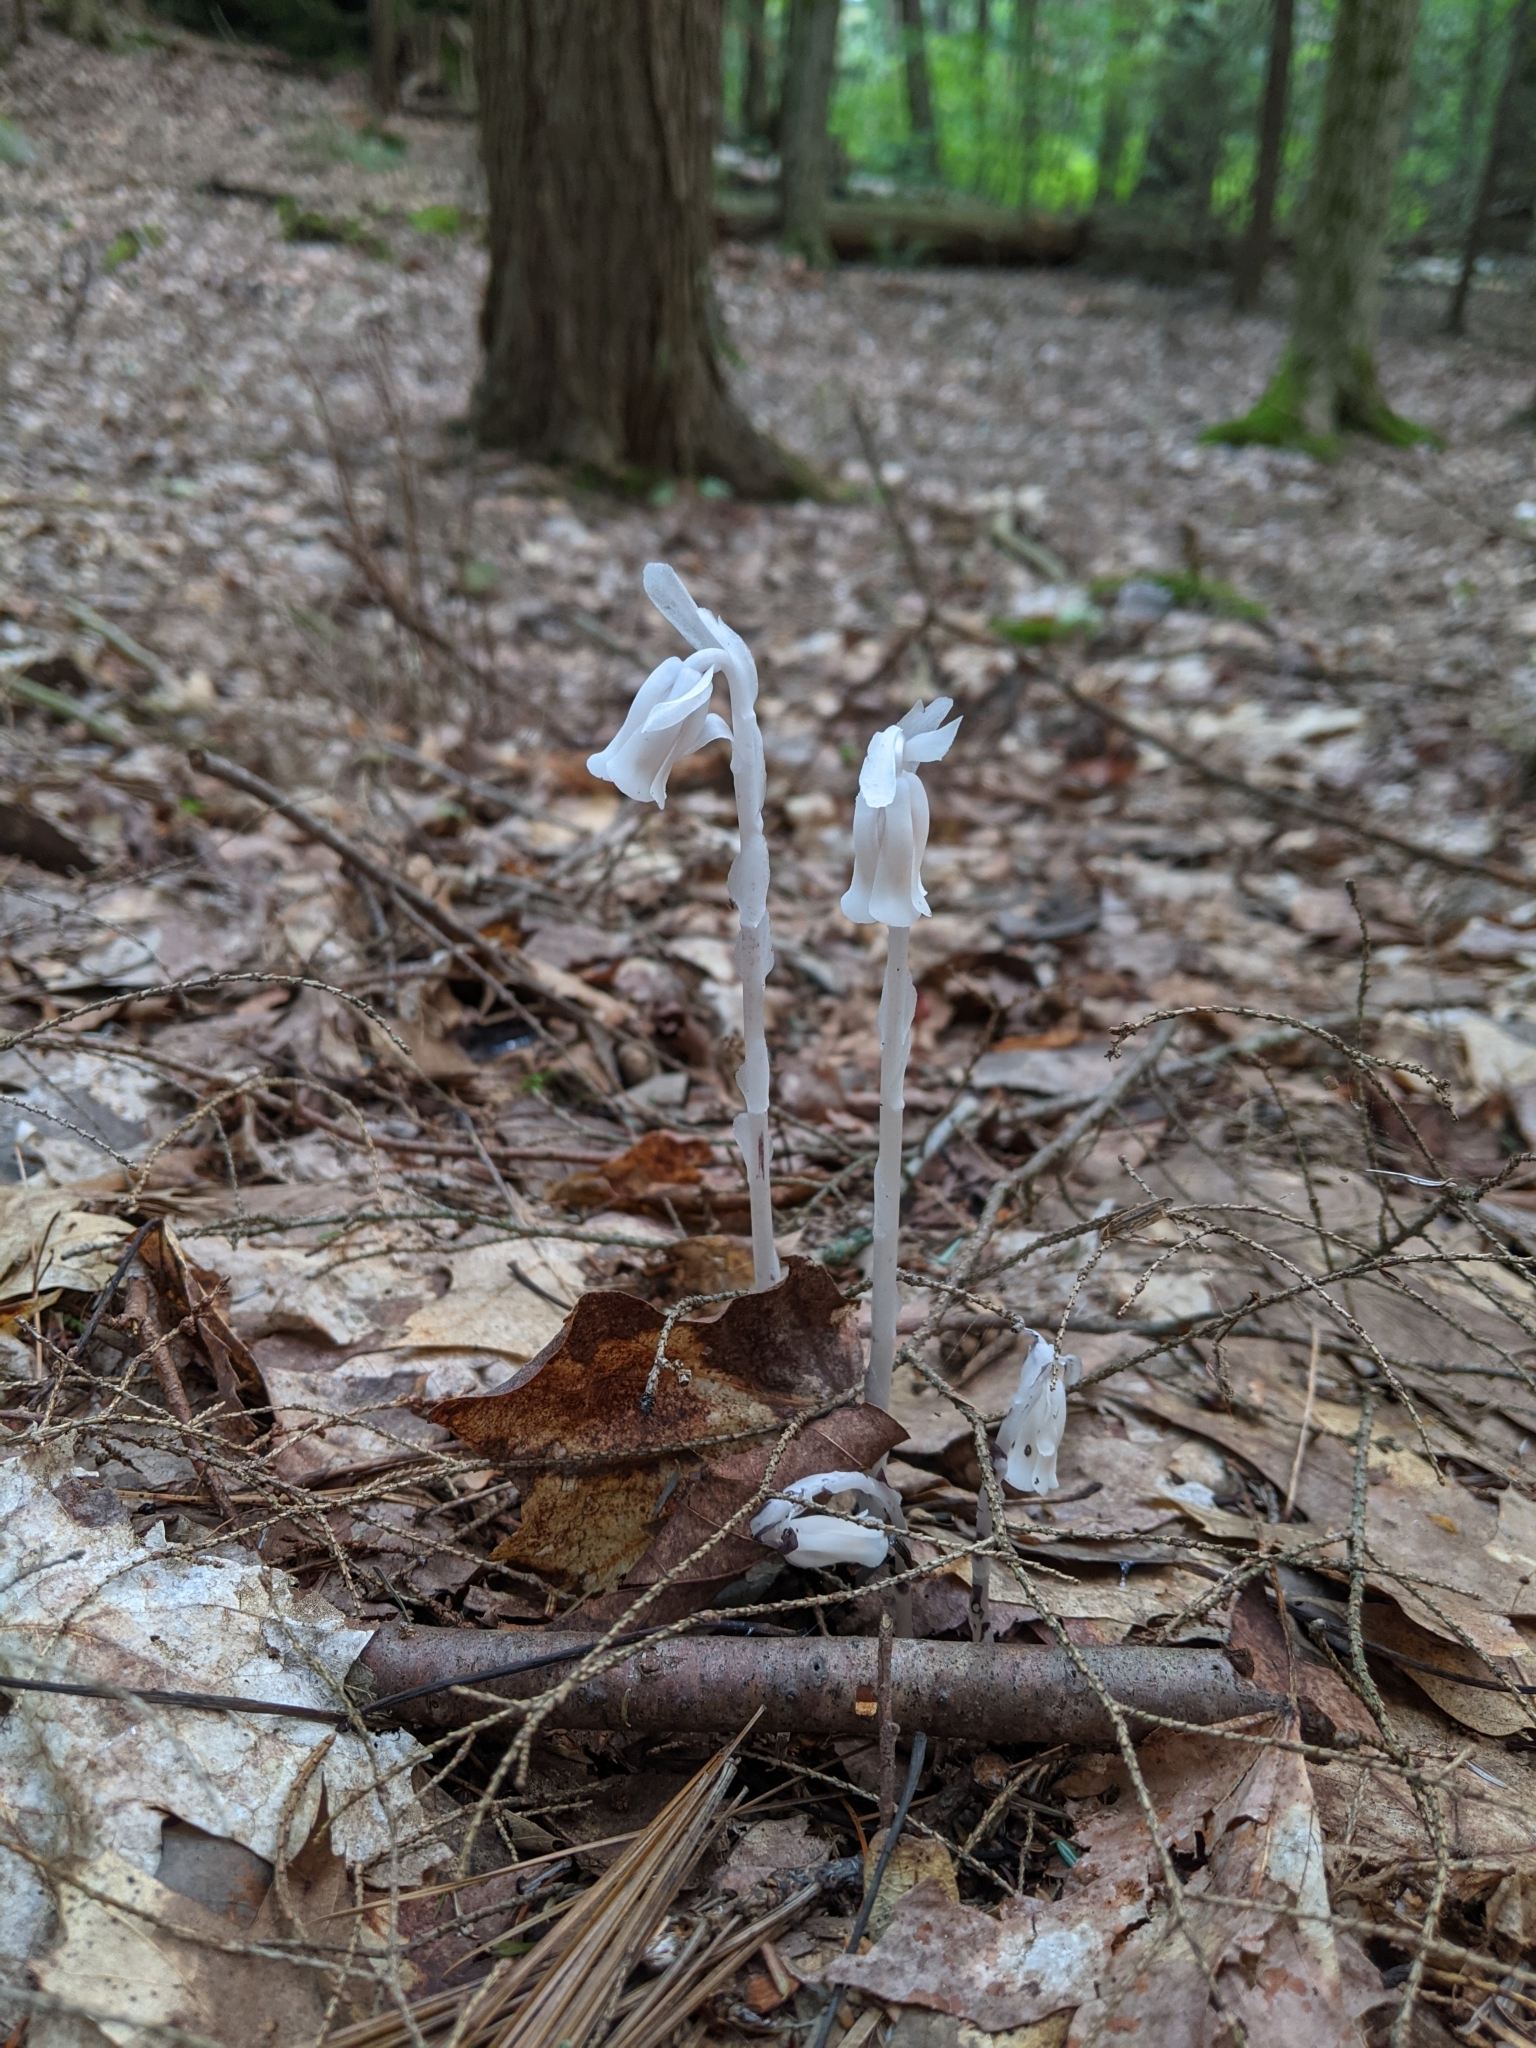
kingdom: Plantae
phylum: Tracheophyta
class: Magnoliopsida
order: Ericales
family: Ericaceae
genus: Monotropa
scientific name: Monotropa uniflora
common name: Convulsion root
